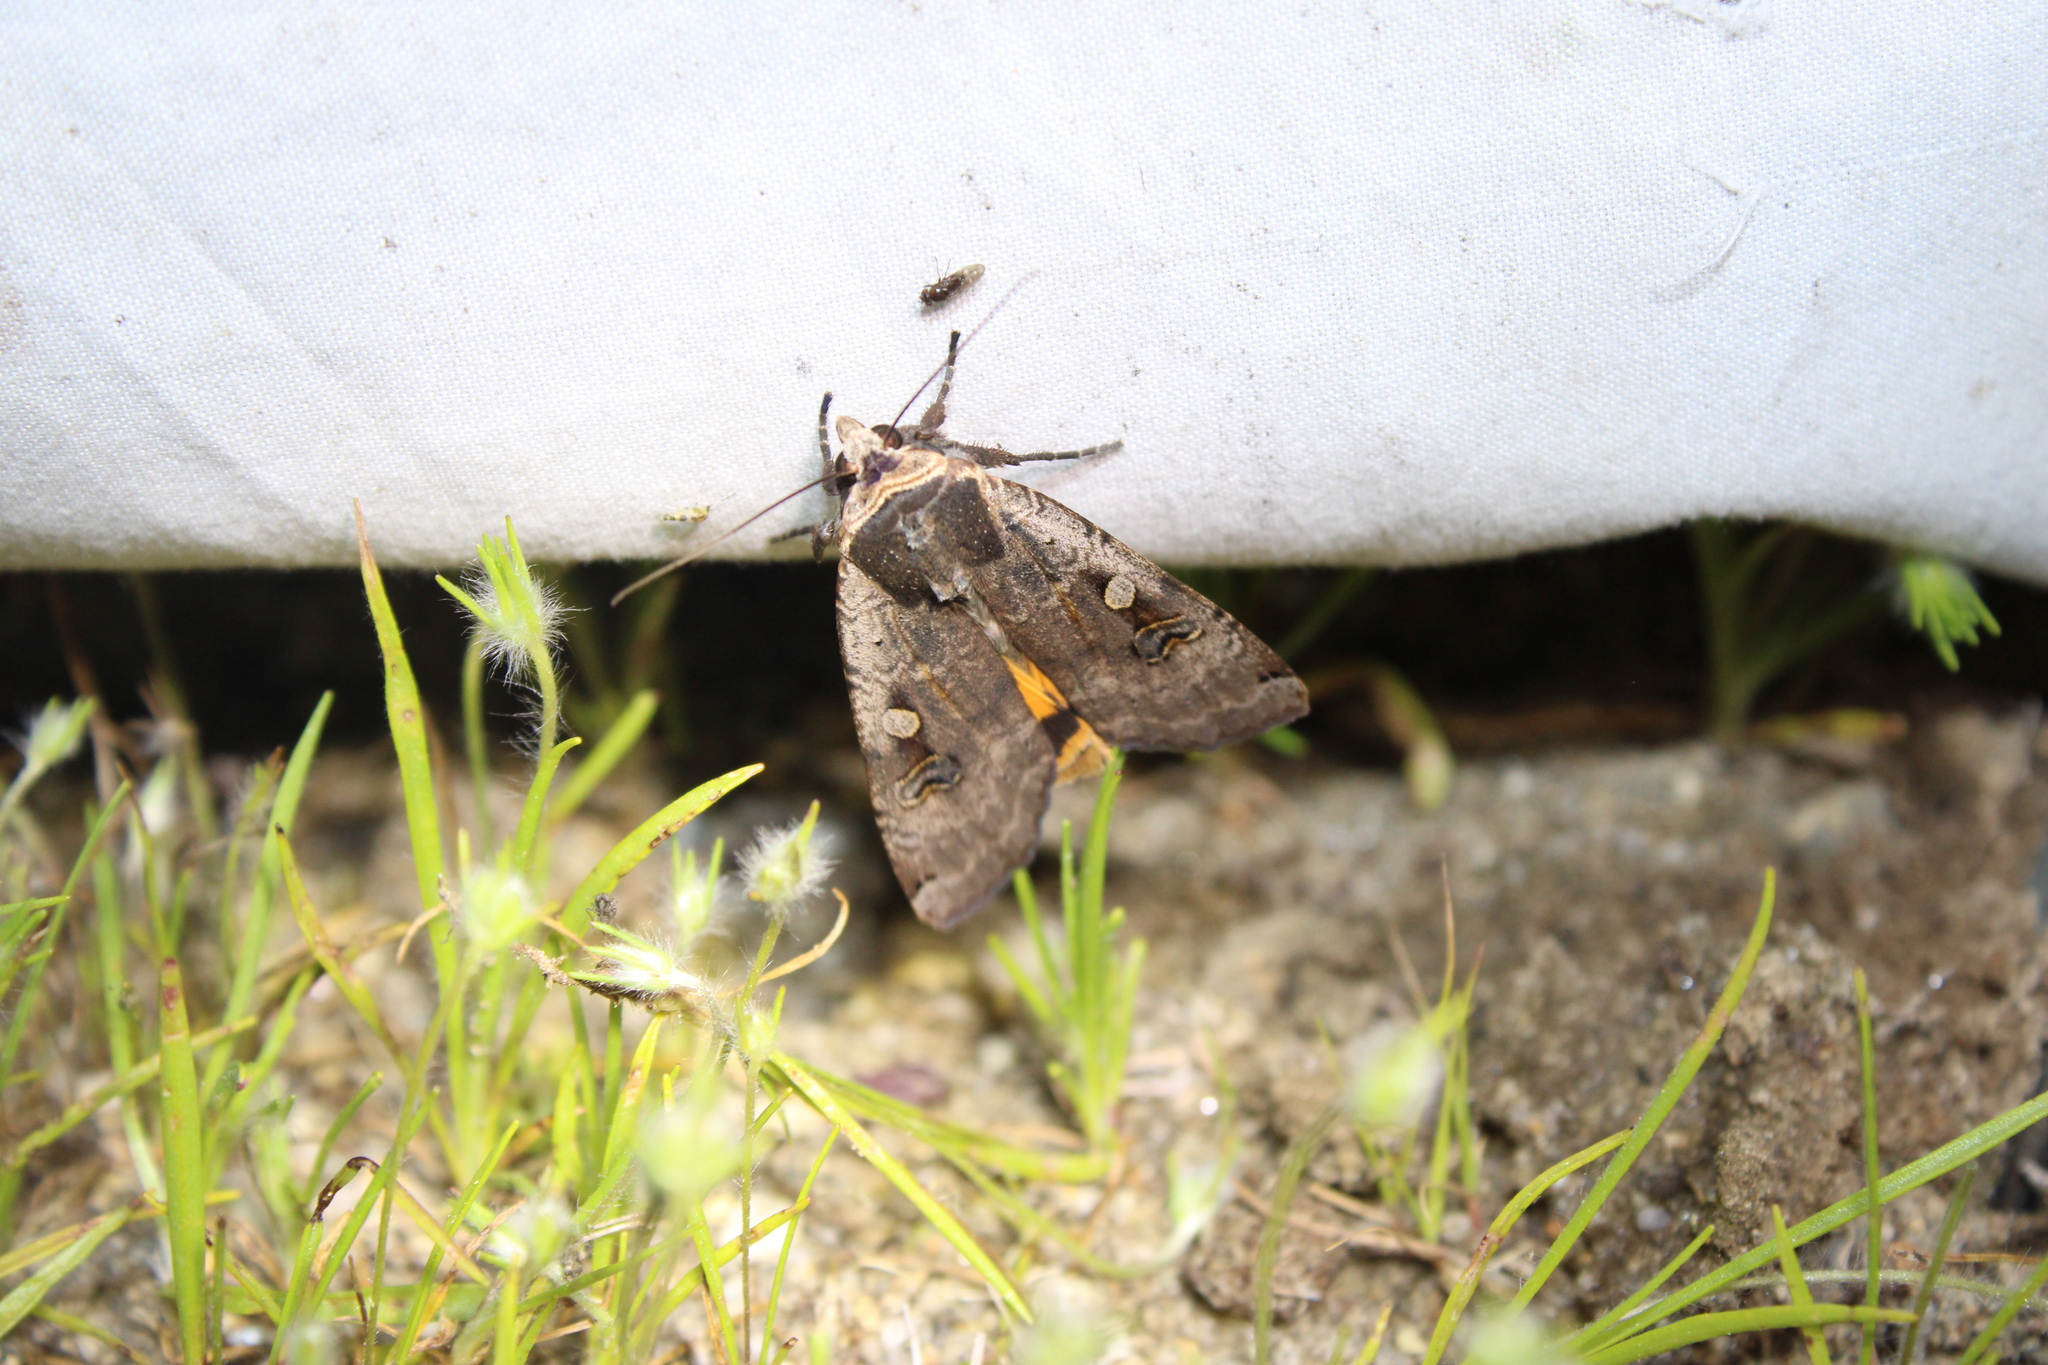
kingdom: Animalia
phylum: Arthropoda
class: Insecta
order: Lepidoptera
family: Noctuidae
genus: Noctua
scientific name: Noctua pronuba
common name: Large yellow underwing
